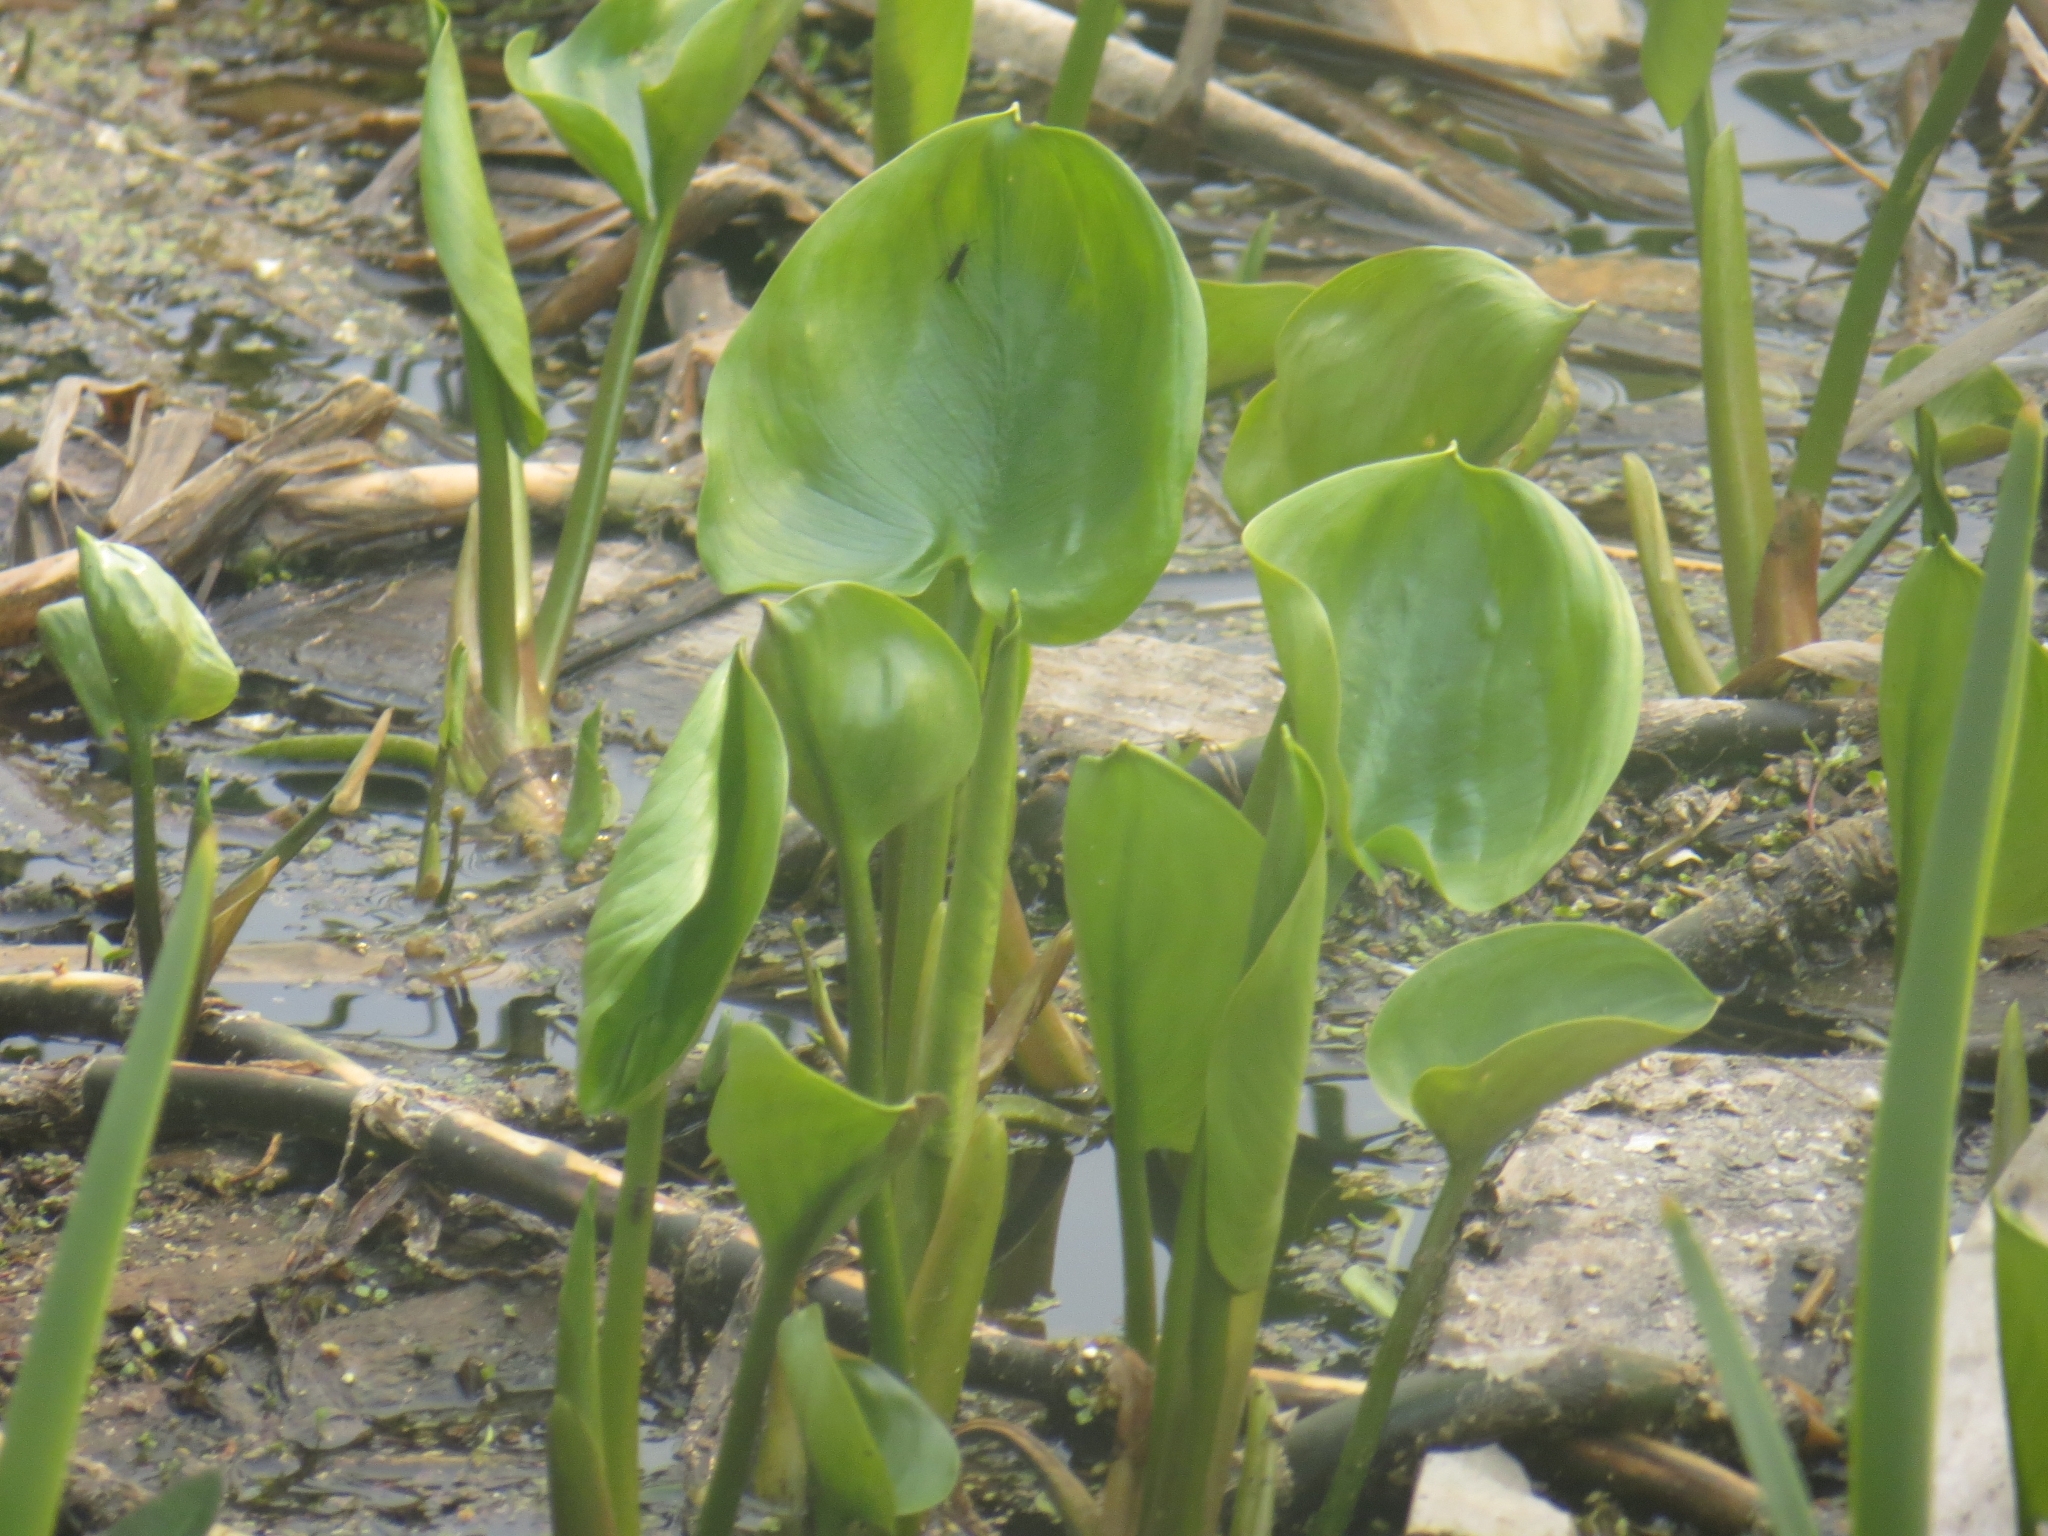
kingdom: Plantae
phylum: Tracheophyta
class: Liliopsida
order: Alismatales
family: Araceae
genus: Calla
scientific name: Calla palustris
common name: Bog arum
